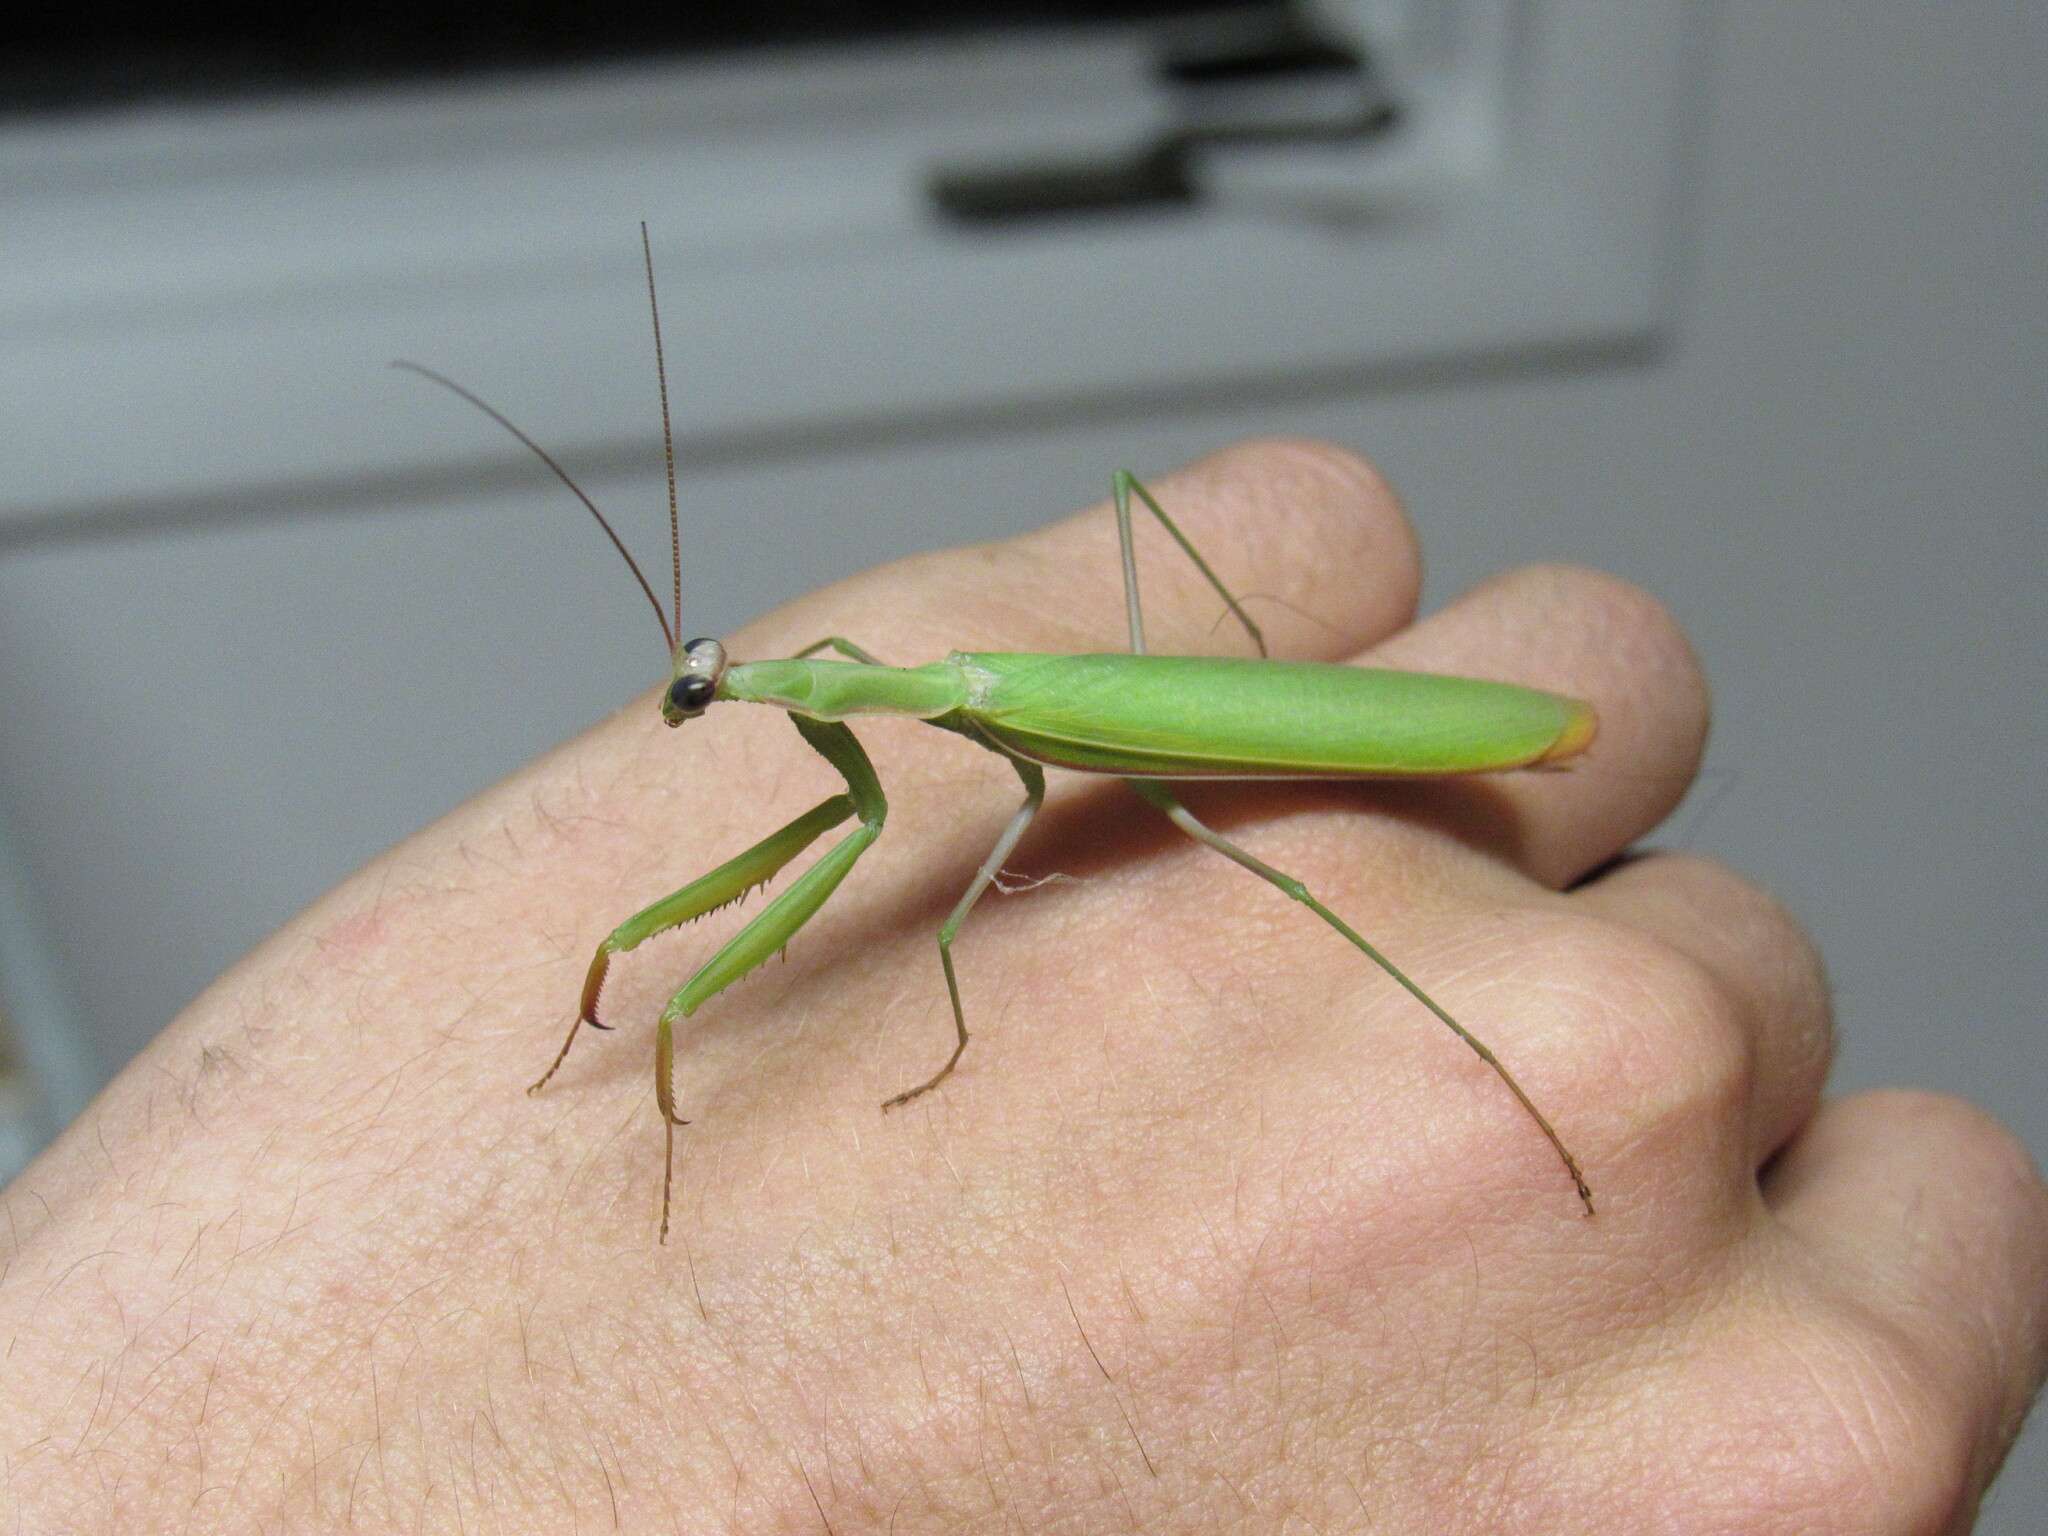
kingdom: Animalia
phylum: Arthropoda
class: Insecta
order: Mantodea
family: Mantidae
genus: Mantis
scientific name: Mantis religiosa
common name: Praying mantis
